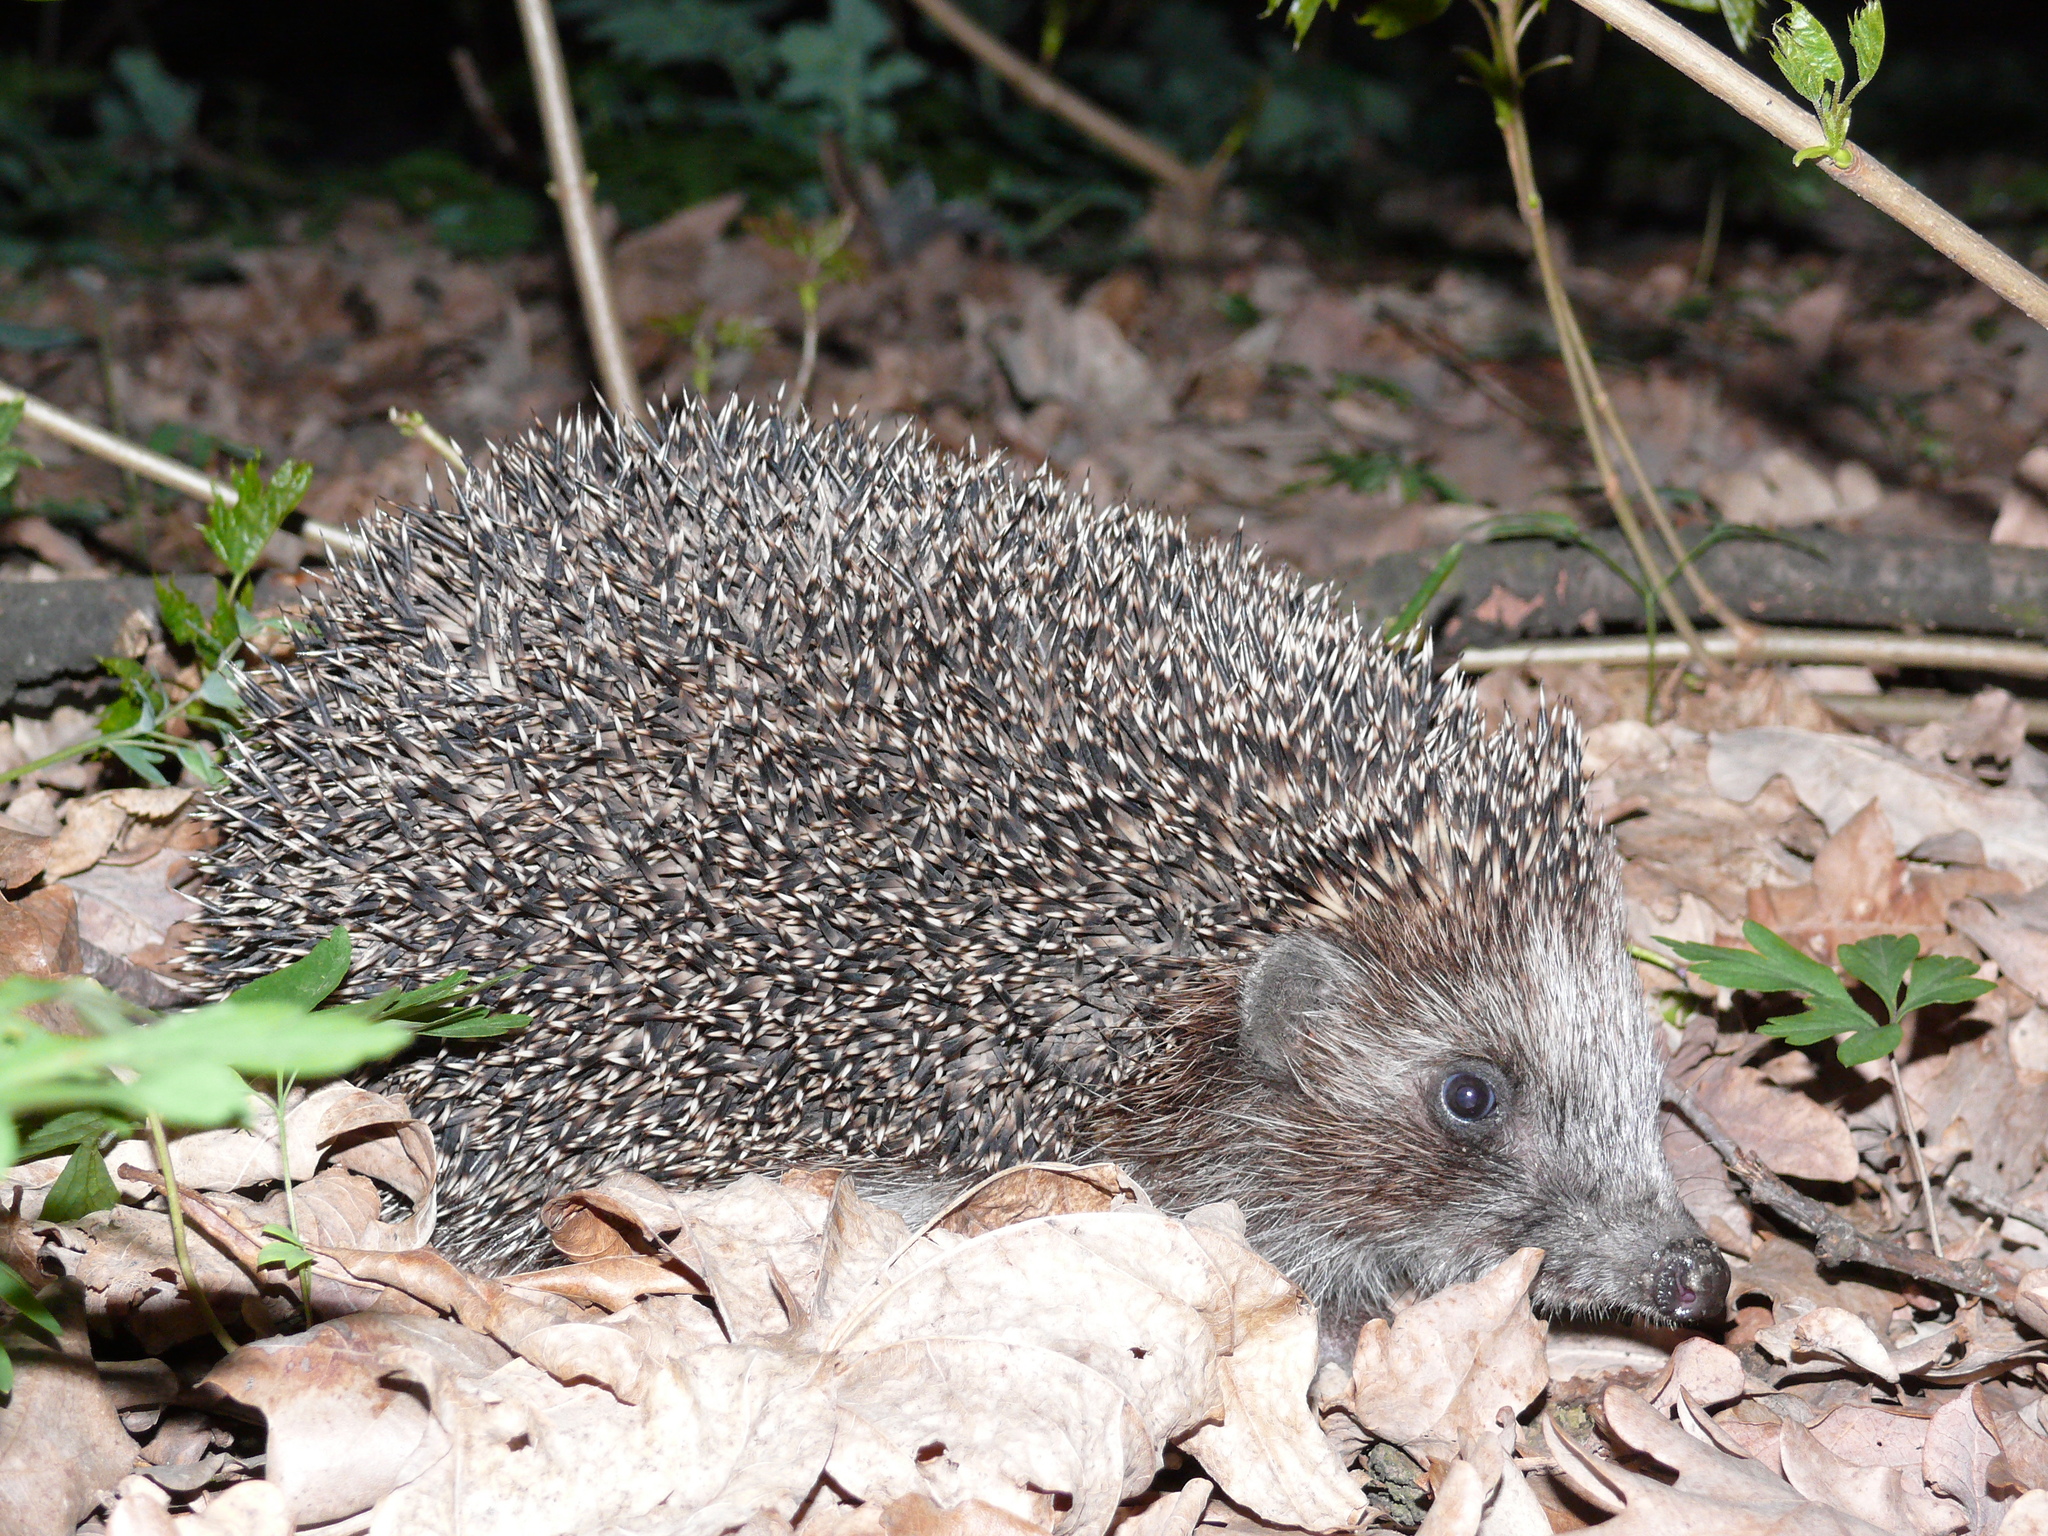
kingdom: Animalia
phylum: Chordata
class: Mammalia
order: Erinaceomorpha
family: Erinaceidae
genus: Erinaceus
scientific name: Erinaceus roumanicus
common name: Northern white-breasted hedgehog
